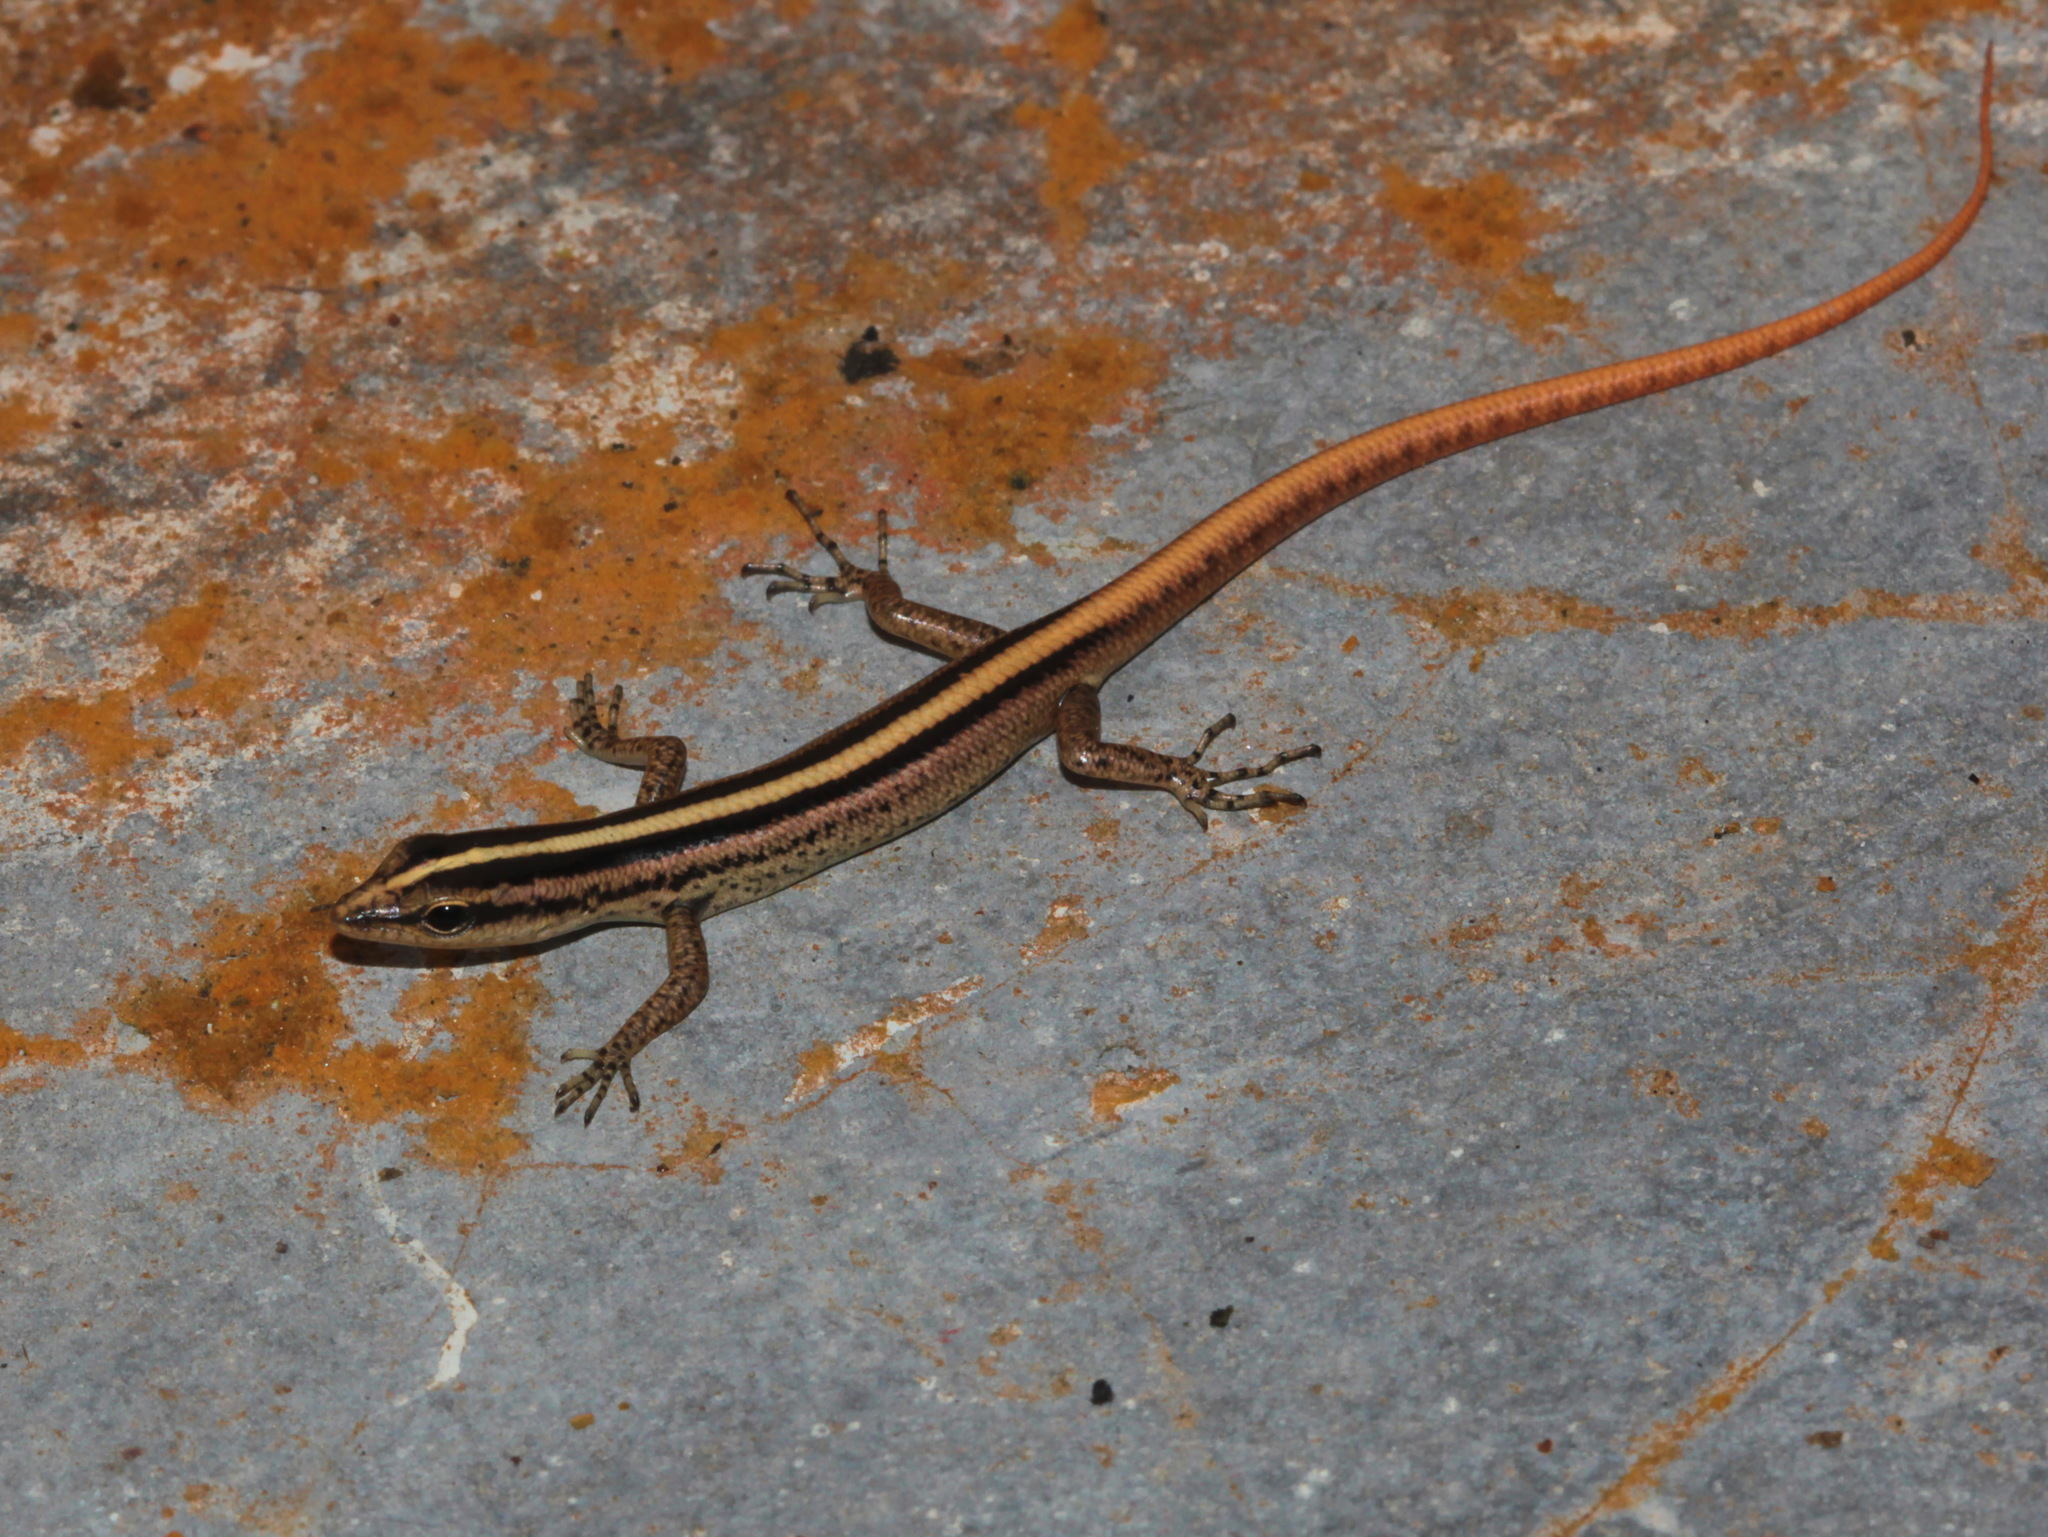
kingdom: Animalia
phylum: Chordata
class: Squamata
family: Scincidae
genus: Lipinia
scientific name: Lipinia vittigera
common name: Banded lipinia
